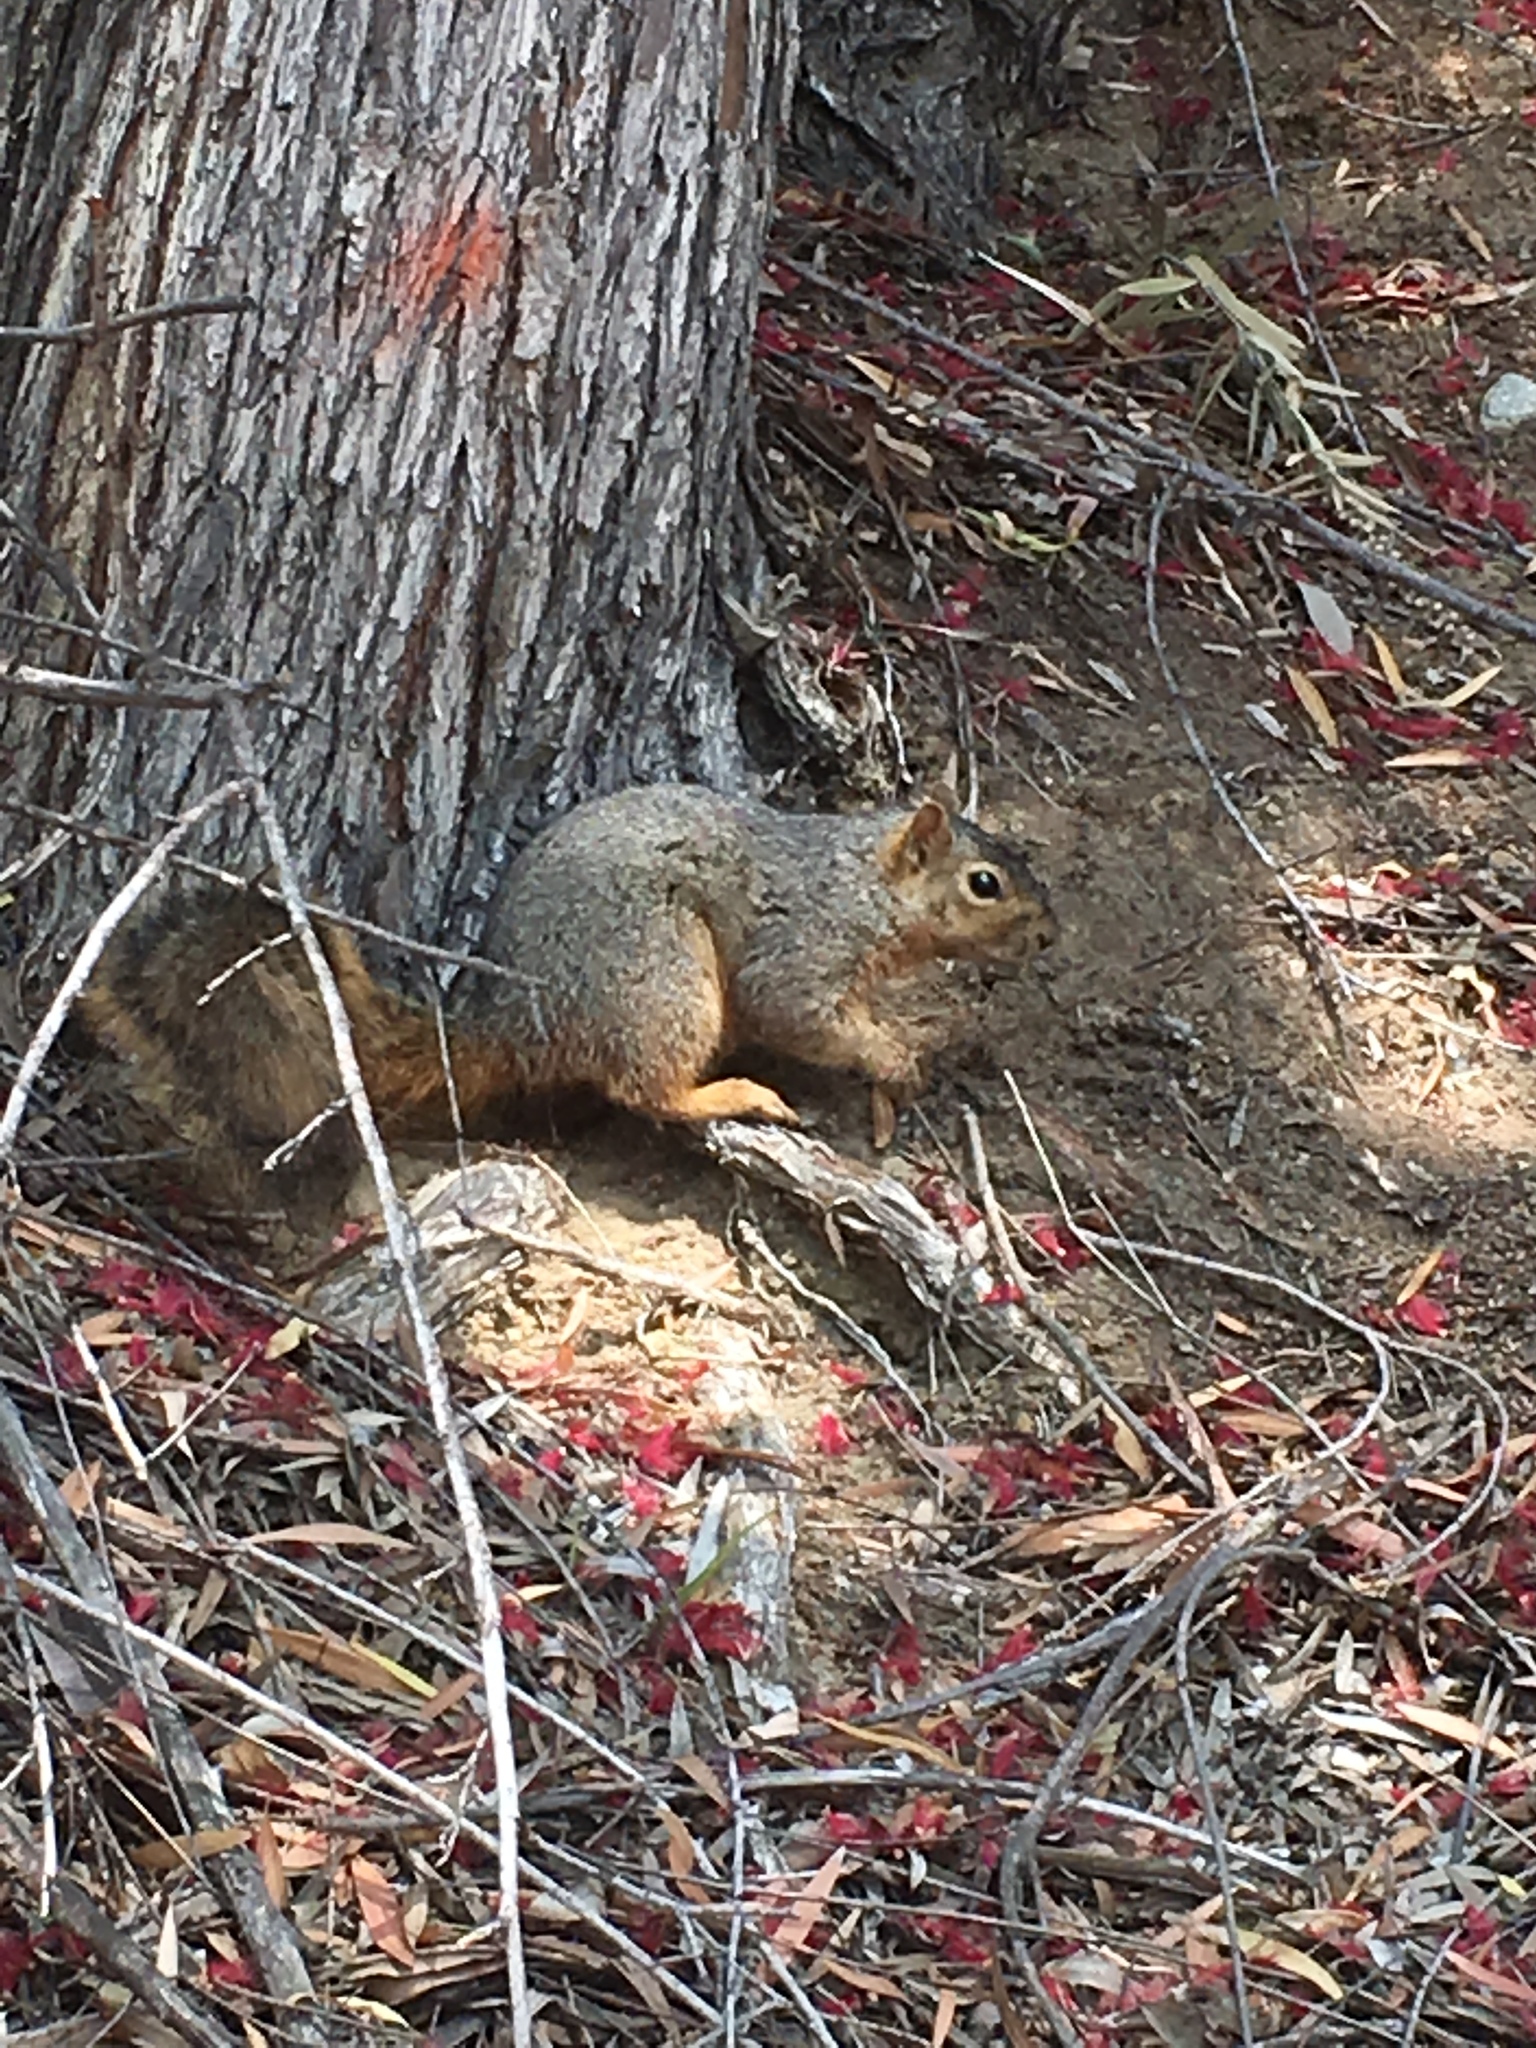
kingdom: Animalia
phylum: Chordata
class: Mammalia
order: Rodentia
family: Sciuridae
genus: Sciurus
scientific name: Sciurus niger
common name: Fox squirrel
